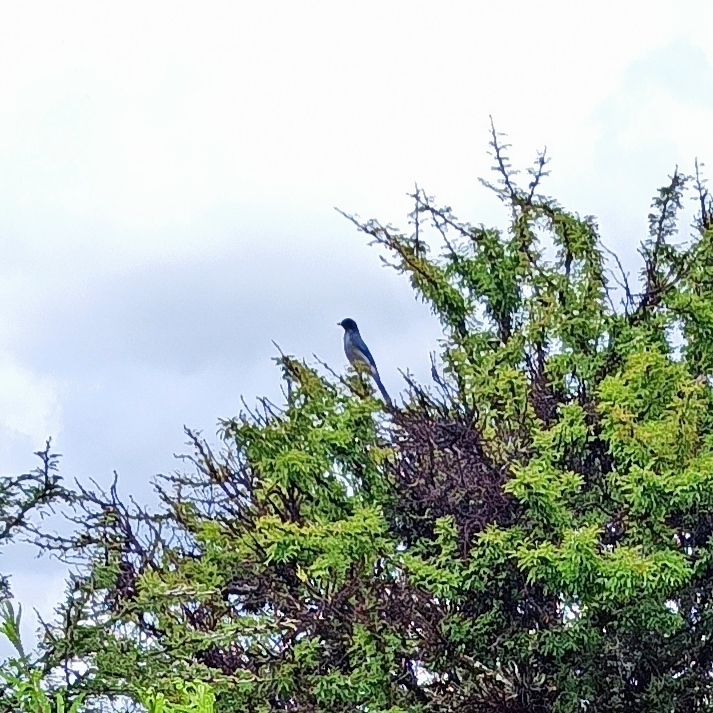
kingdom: Animalia
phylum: Chordata
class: Aves
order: Passeriformes
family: Corvidae
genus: Aphelocoma
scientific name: Aphelocoma wollweberi
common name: Mexican jay
